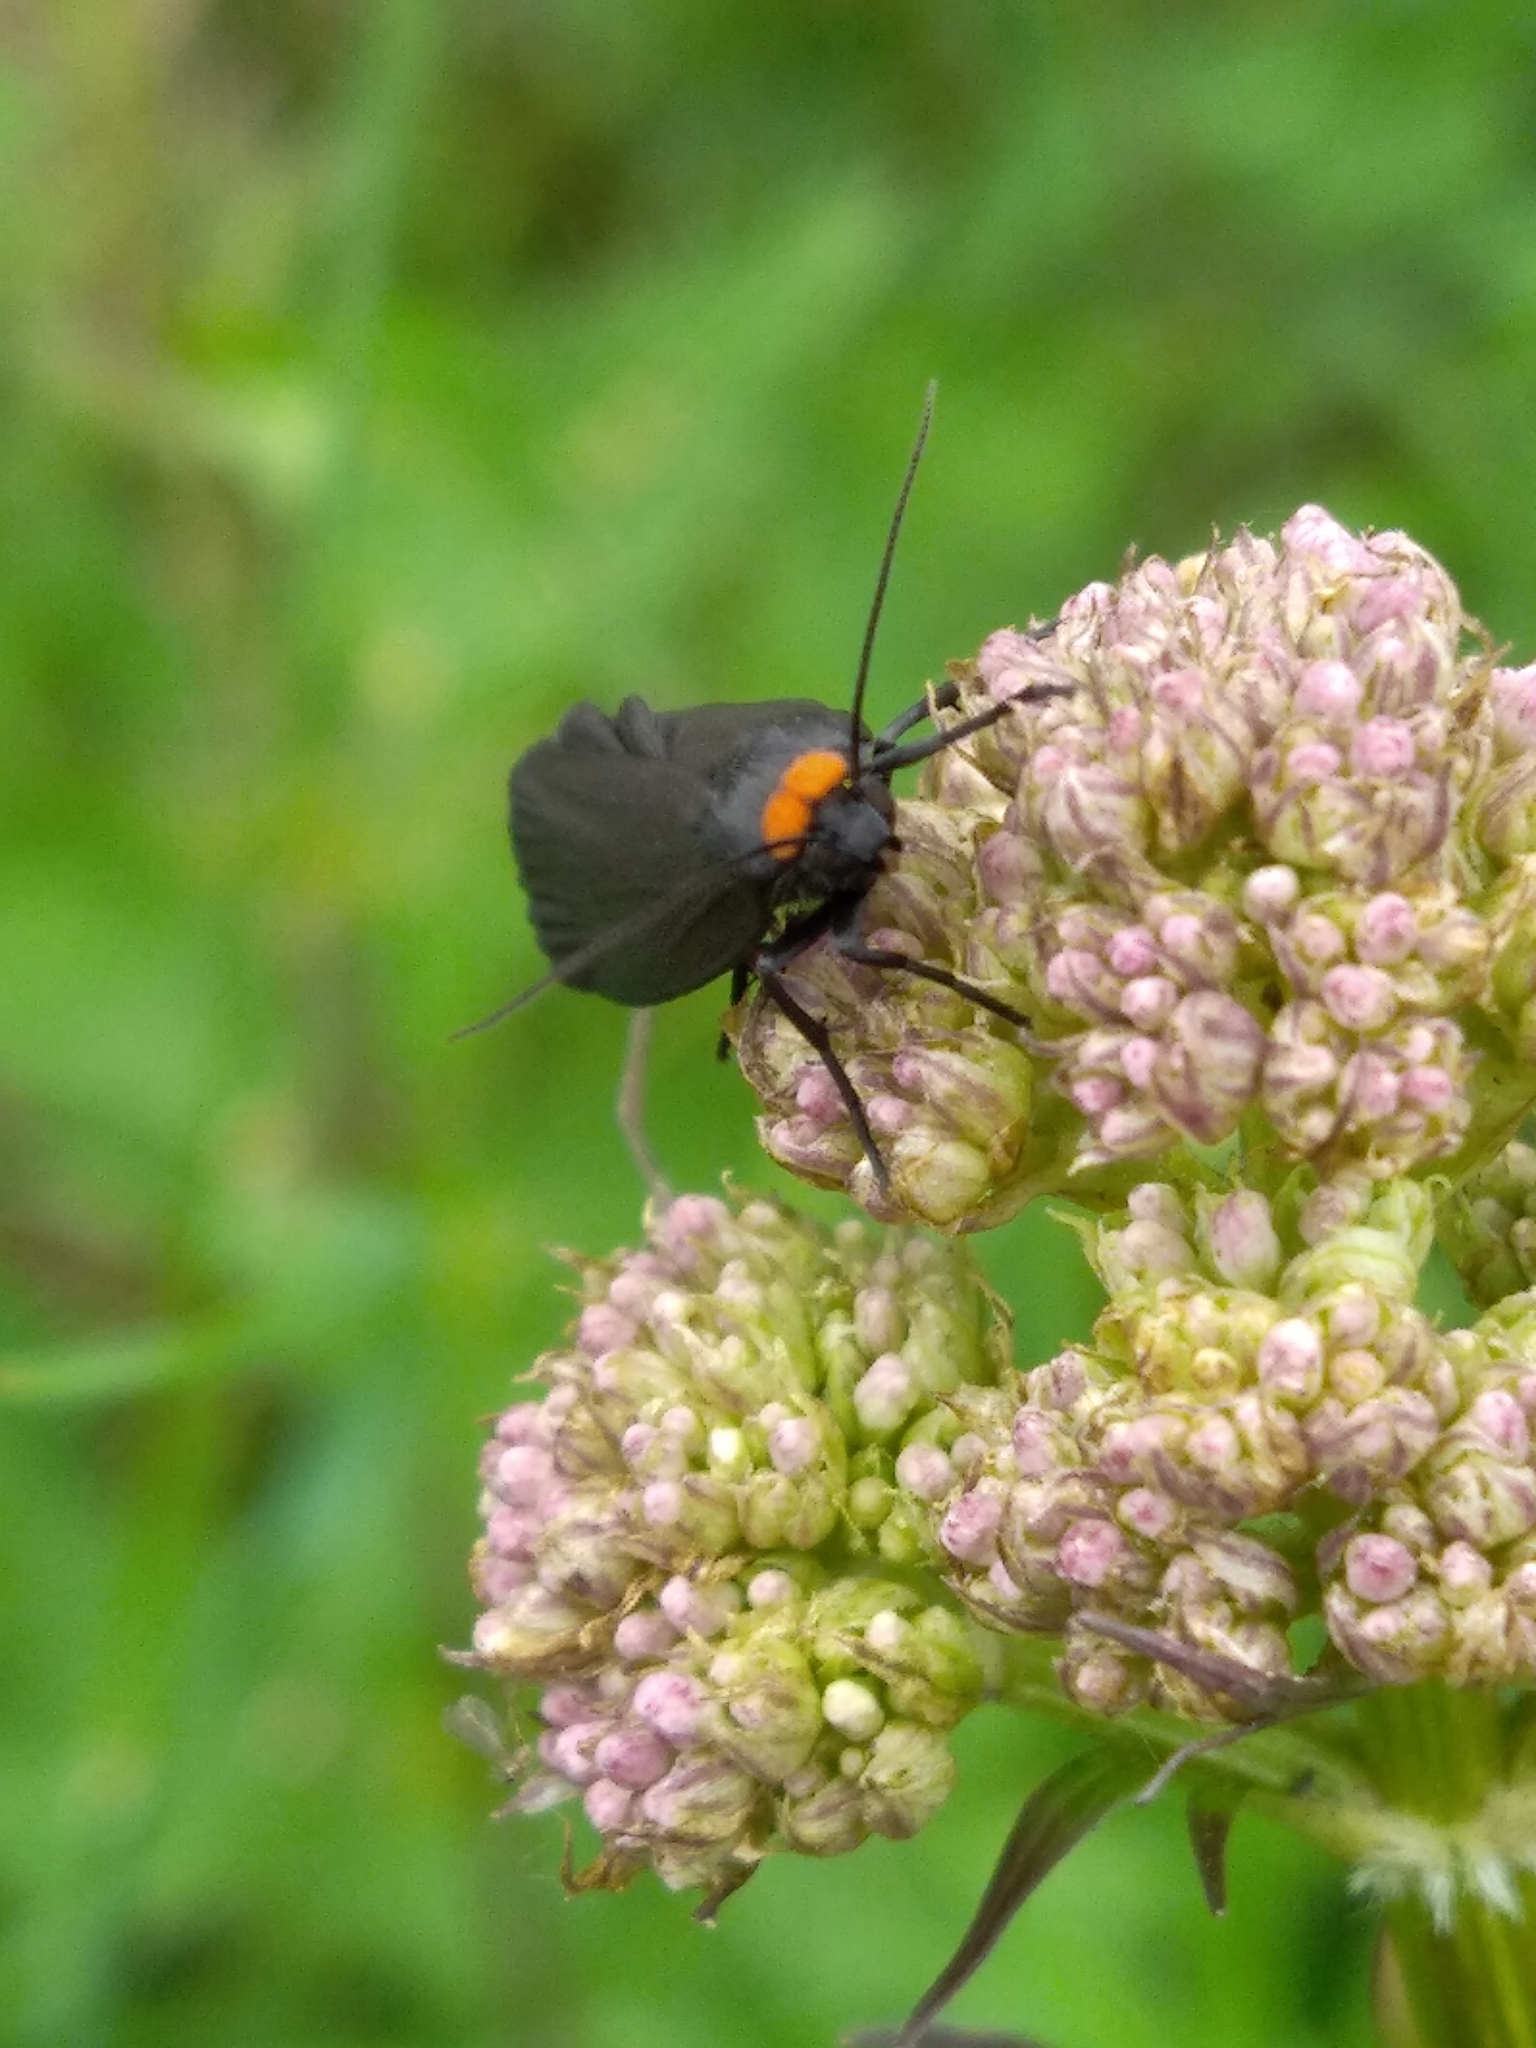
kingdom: Animalia
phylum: Arthropoda
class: Insecta
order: Lepidoptera
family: Erebidae
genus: Atolmis
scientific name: Atolmis rubricollis
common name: Red-necked footman
